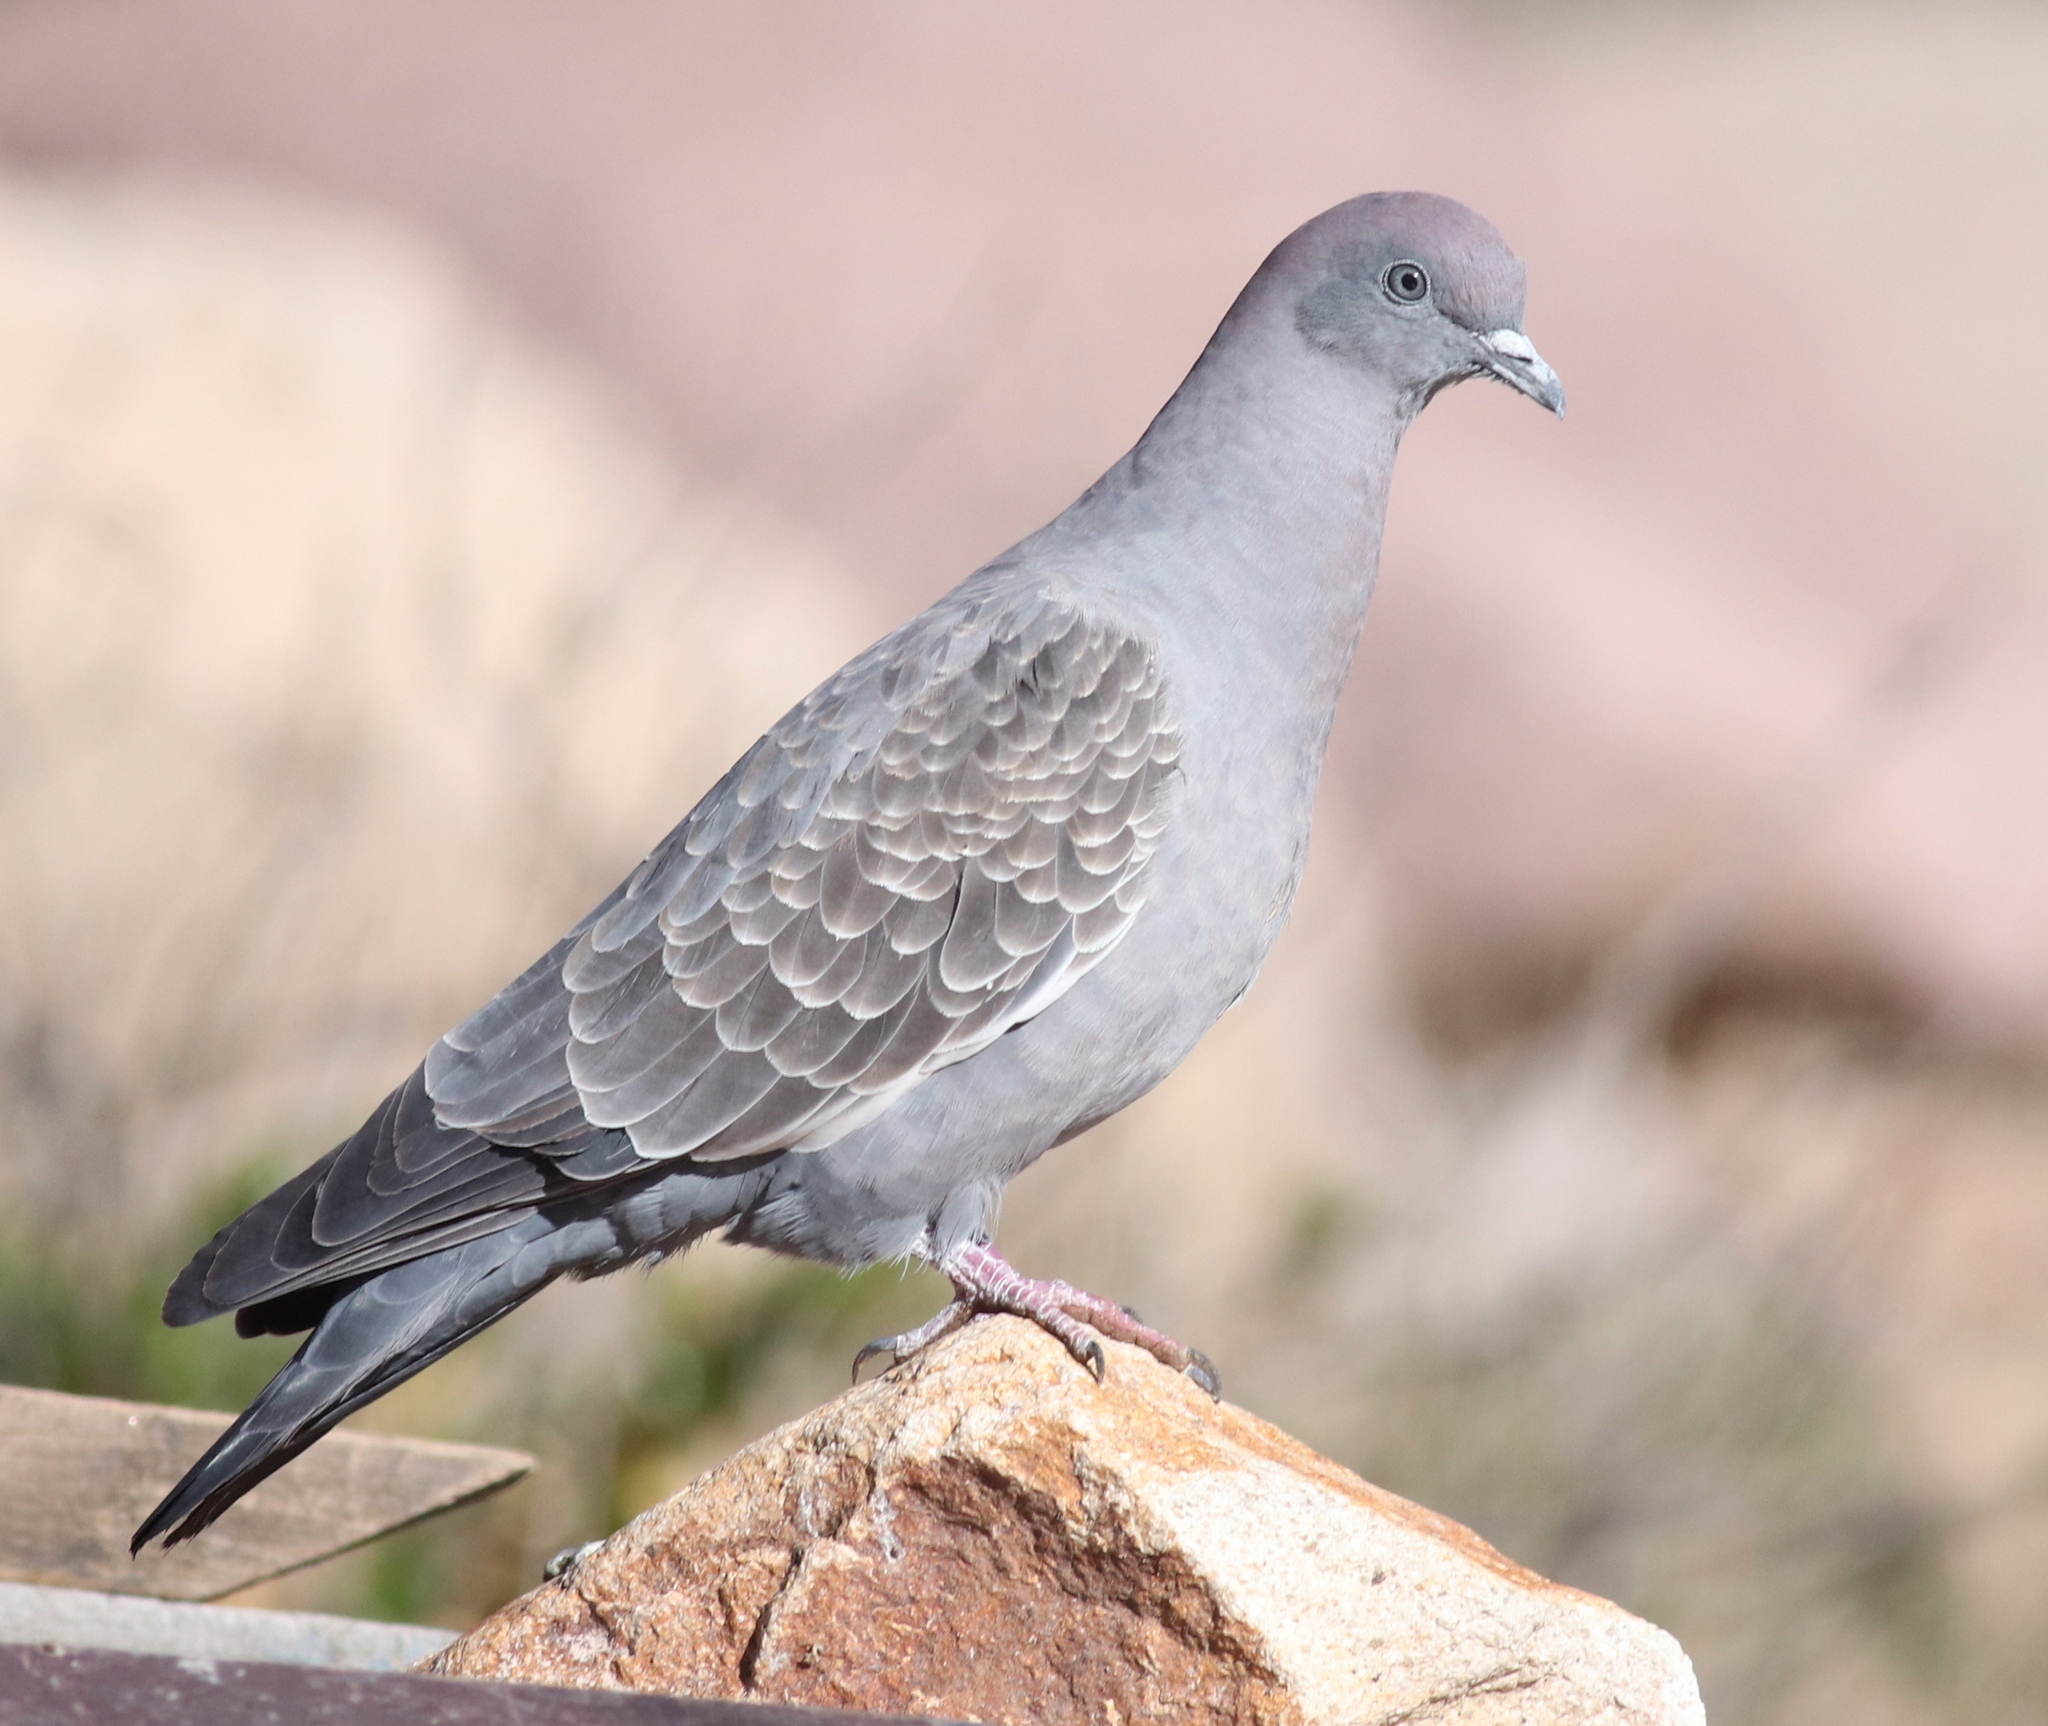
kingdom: Animalia
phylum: Chordata
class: Aves
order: Columbiformes
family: Columbidae
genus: Patagioenas
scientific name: Patagioenas maculosa
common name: Spot-winged pigeon
